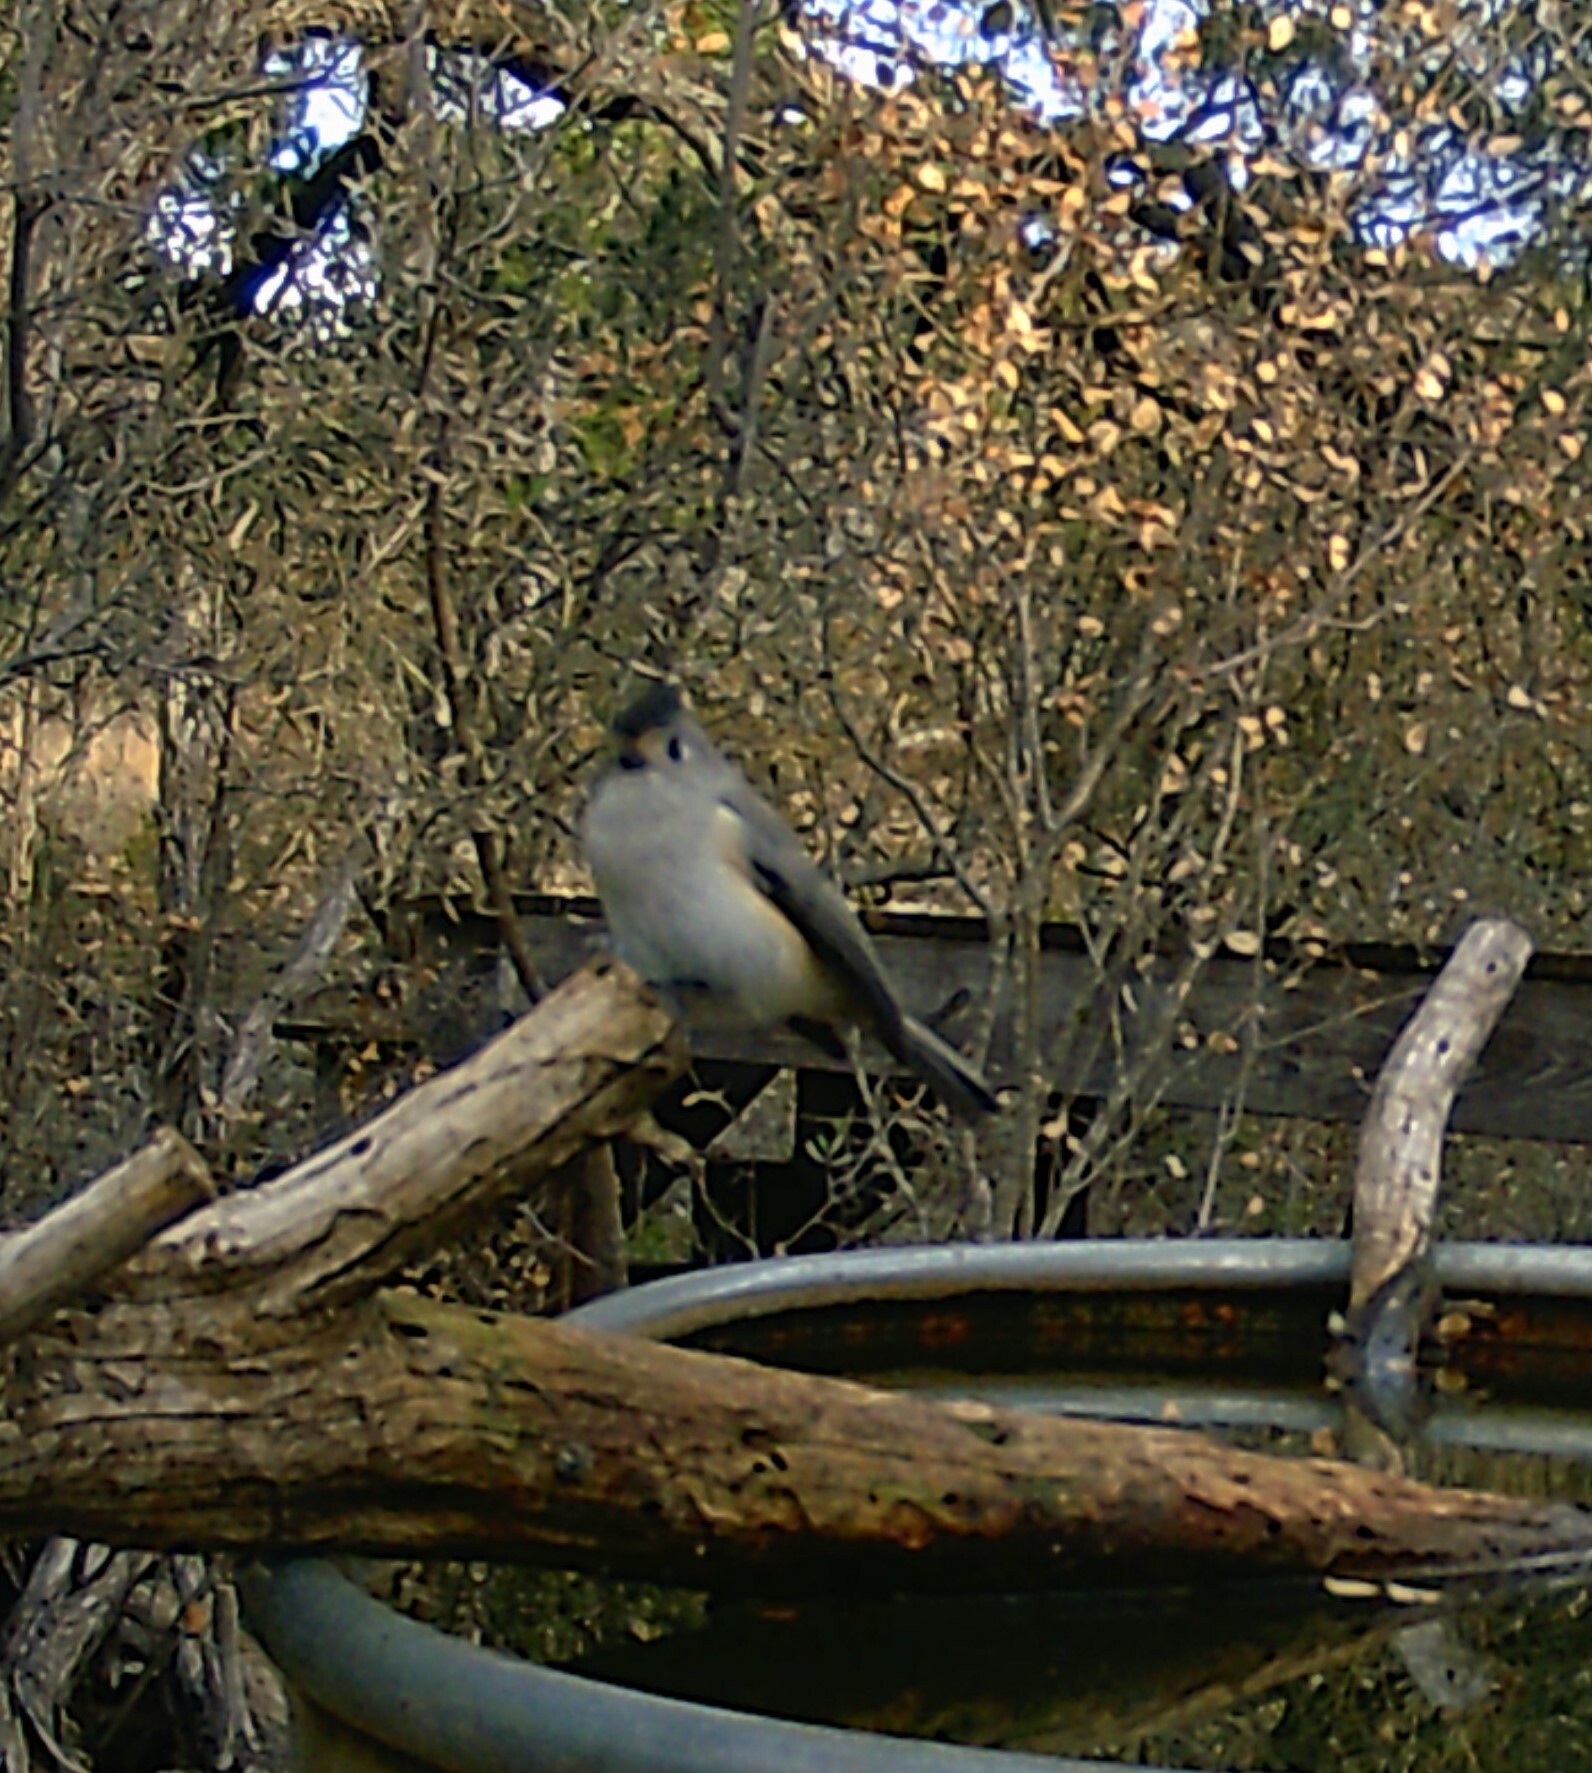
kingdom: Animalia
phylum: Chordata
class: Aves
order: Passeriformes
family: Paridae
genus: Baeolophus
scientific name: Baeolophus atricristatus
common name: Black-crested titmouse
